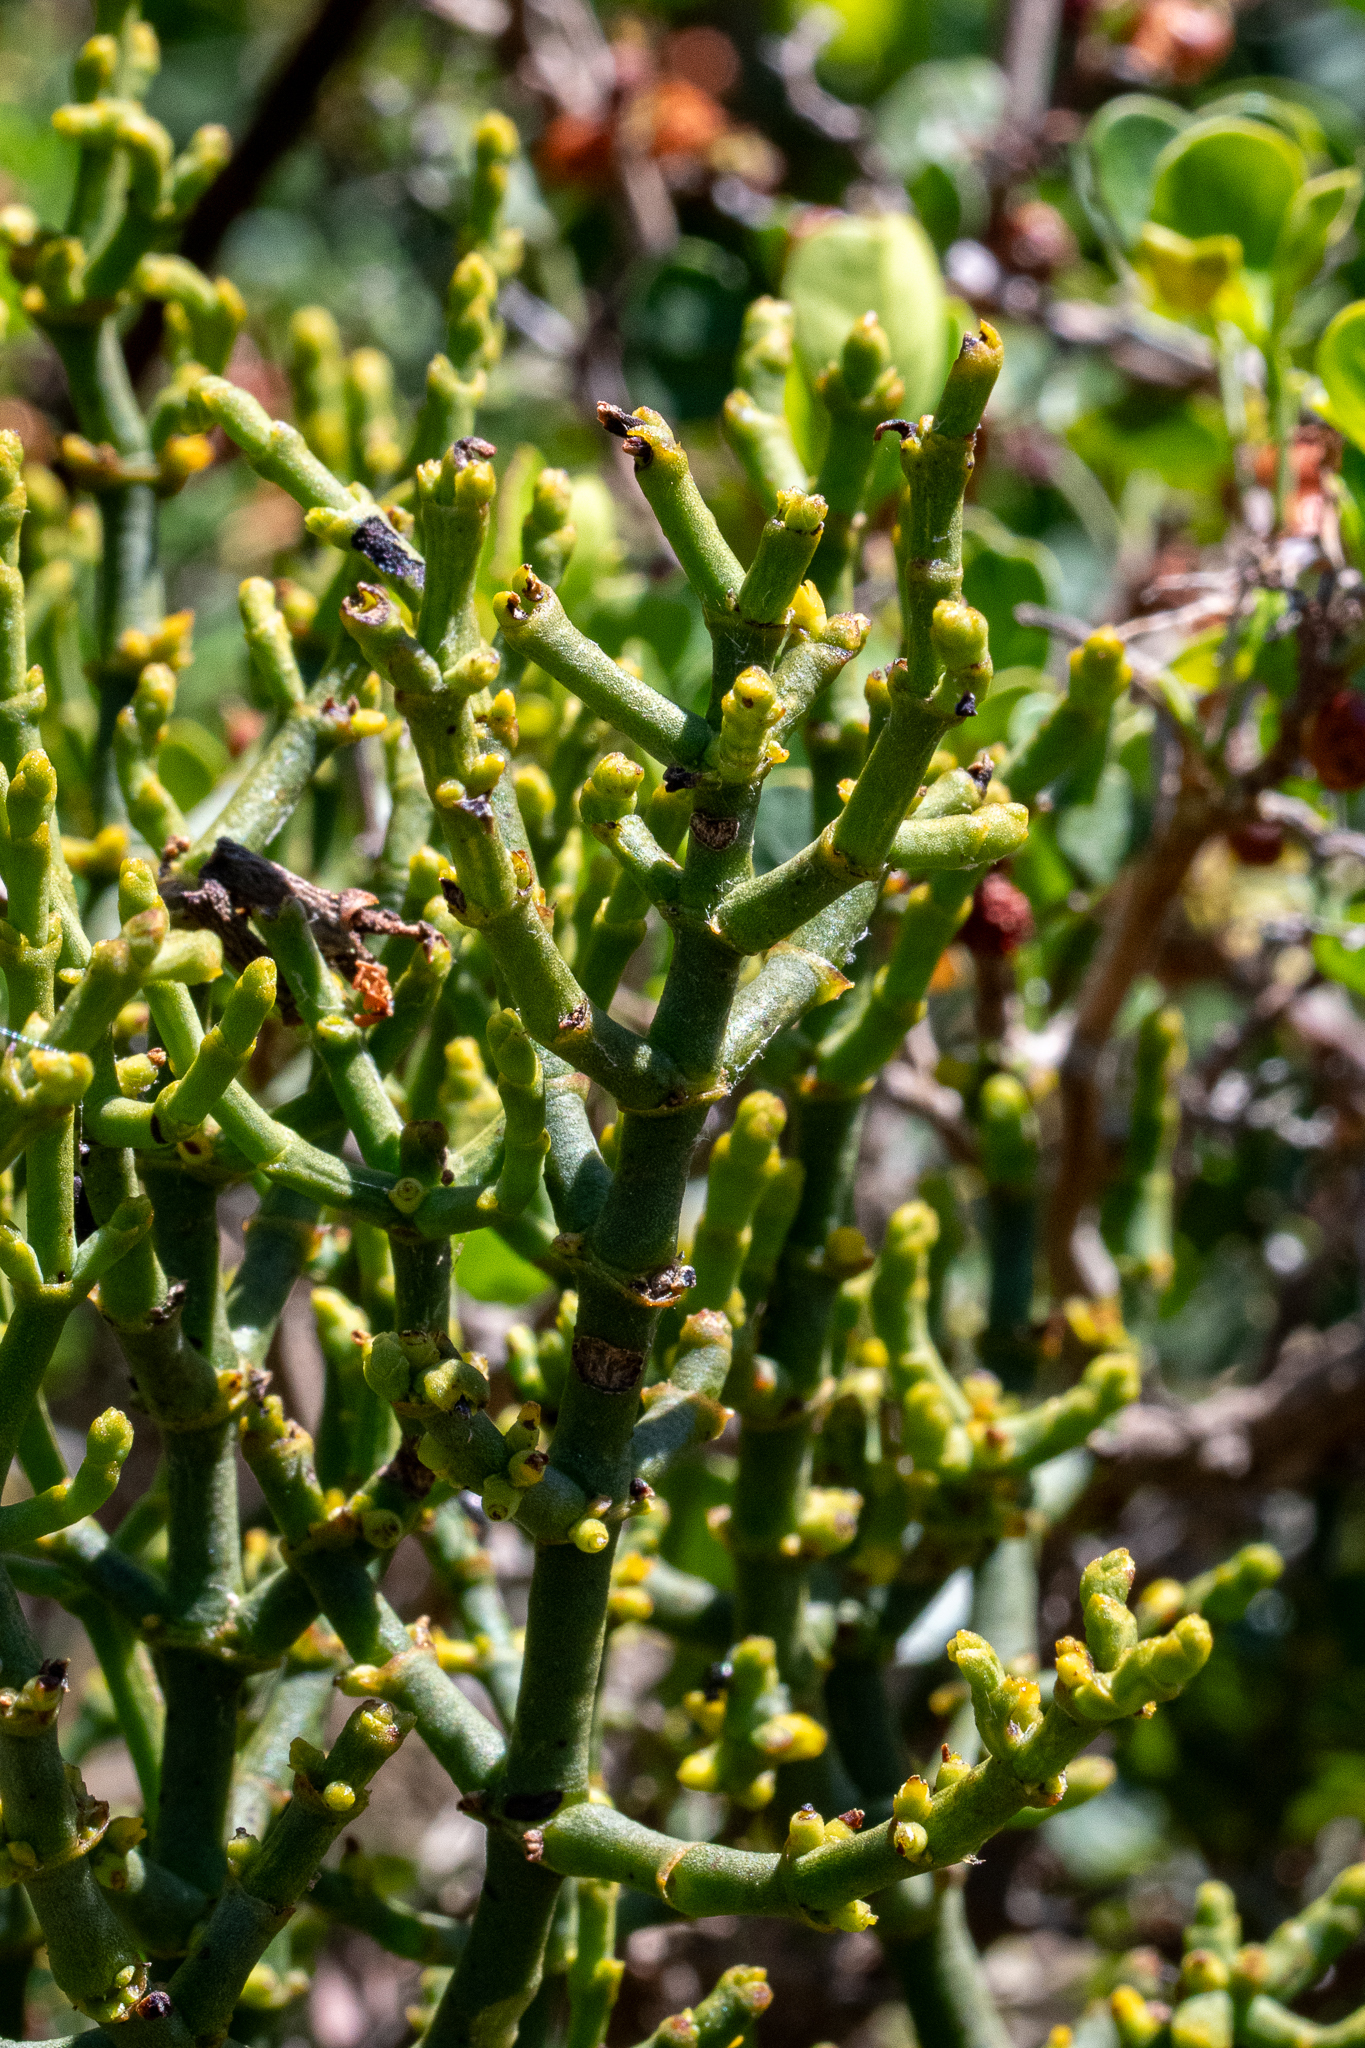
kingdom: Plantae
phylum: Tracheophyta
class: Magnoliopsida
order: Santalales
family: Viscaceae
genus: Viscum
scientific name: Viscum capense
